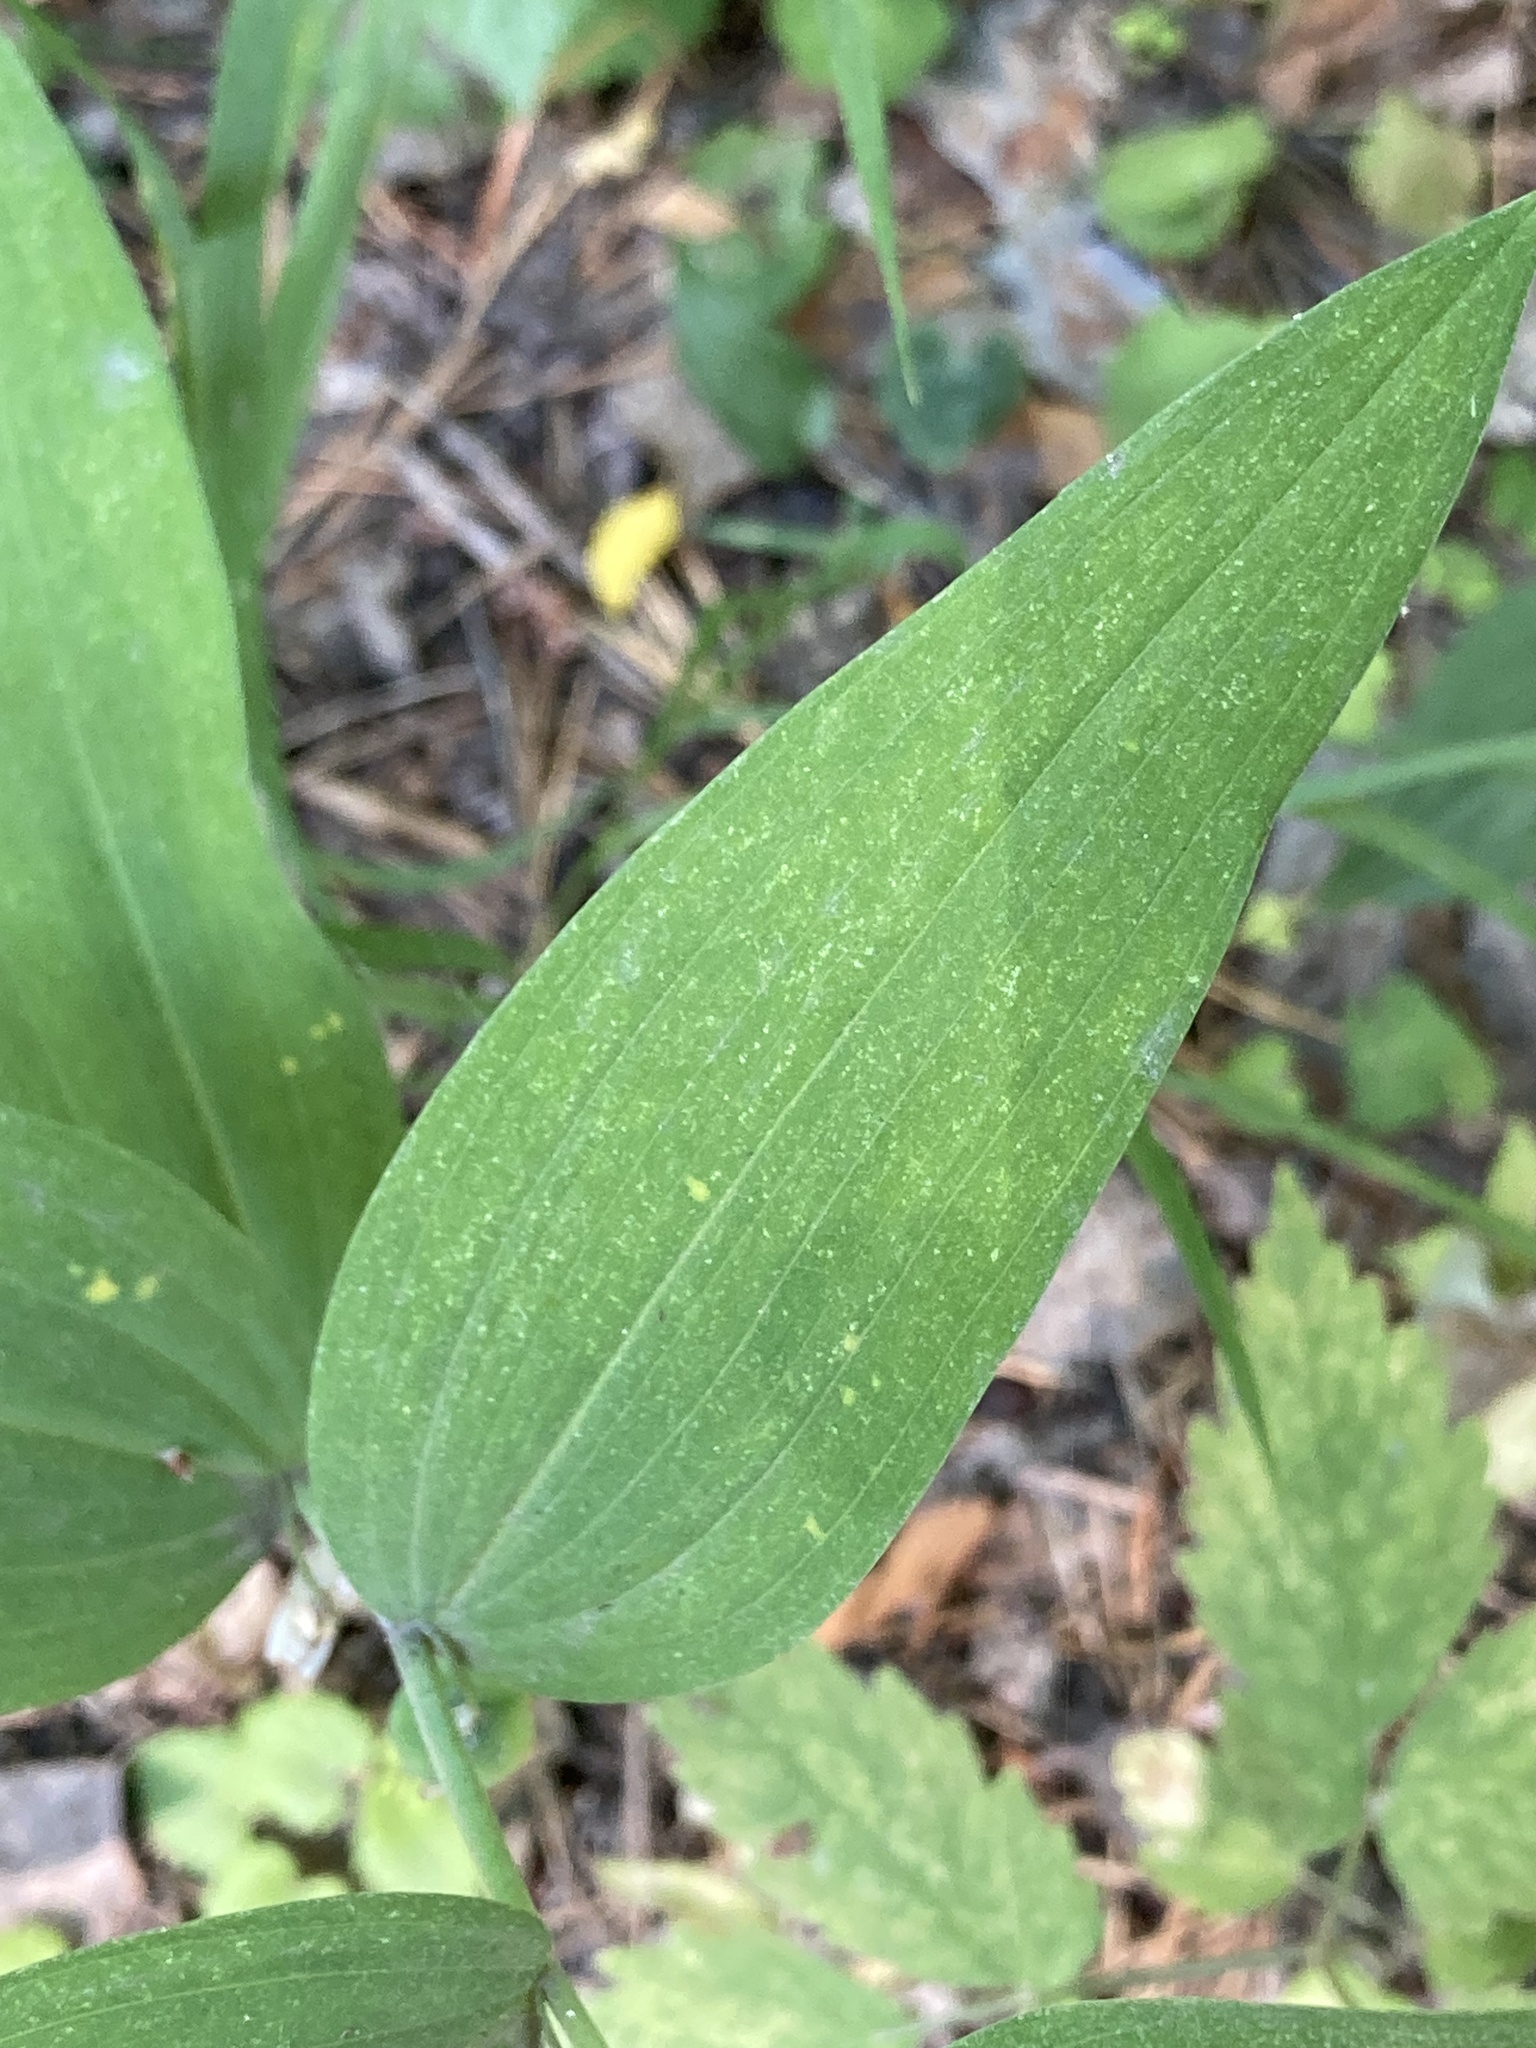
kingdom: Plantae
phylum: Tracheophyta
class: Liliopsida
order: Asparagales
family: Asparagaceae
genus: Polygonatum
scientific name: Polygonatum odoratum
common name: Angular solomon's-seal
